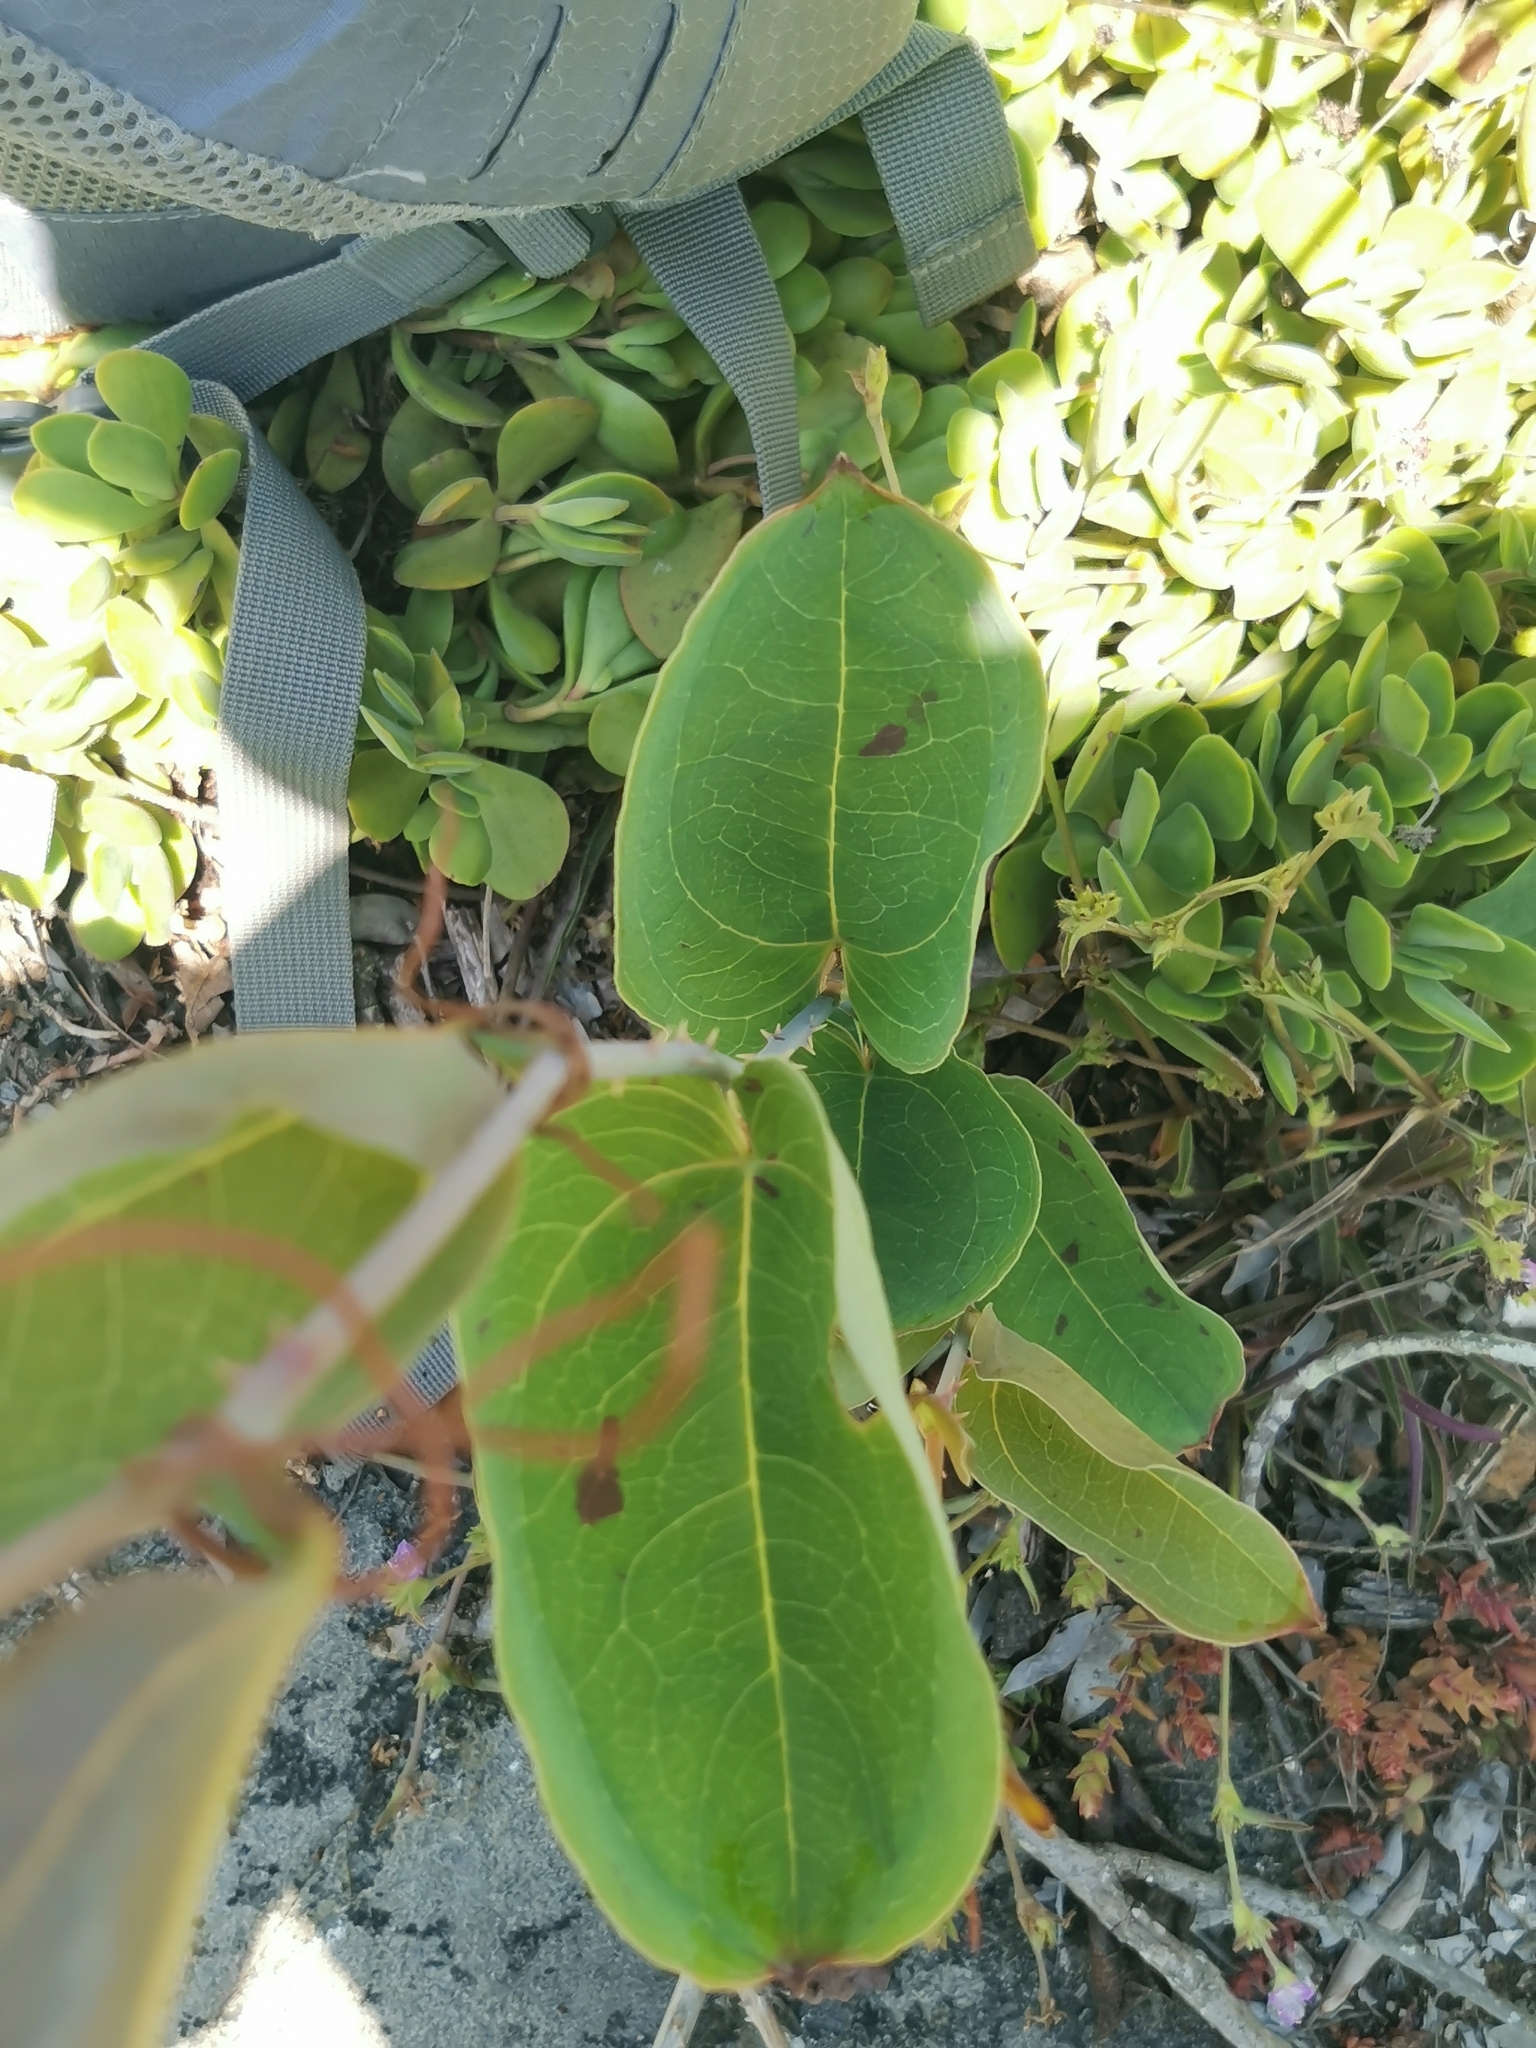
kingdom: Plantae
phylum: Tracheophyta
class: Liliopsida
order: Liliales
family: Smilacaceae
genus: Smilax
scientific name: Smilax anceps
